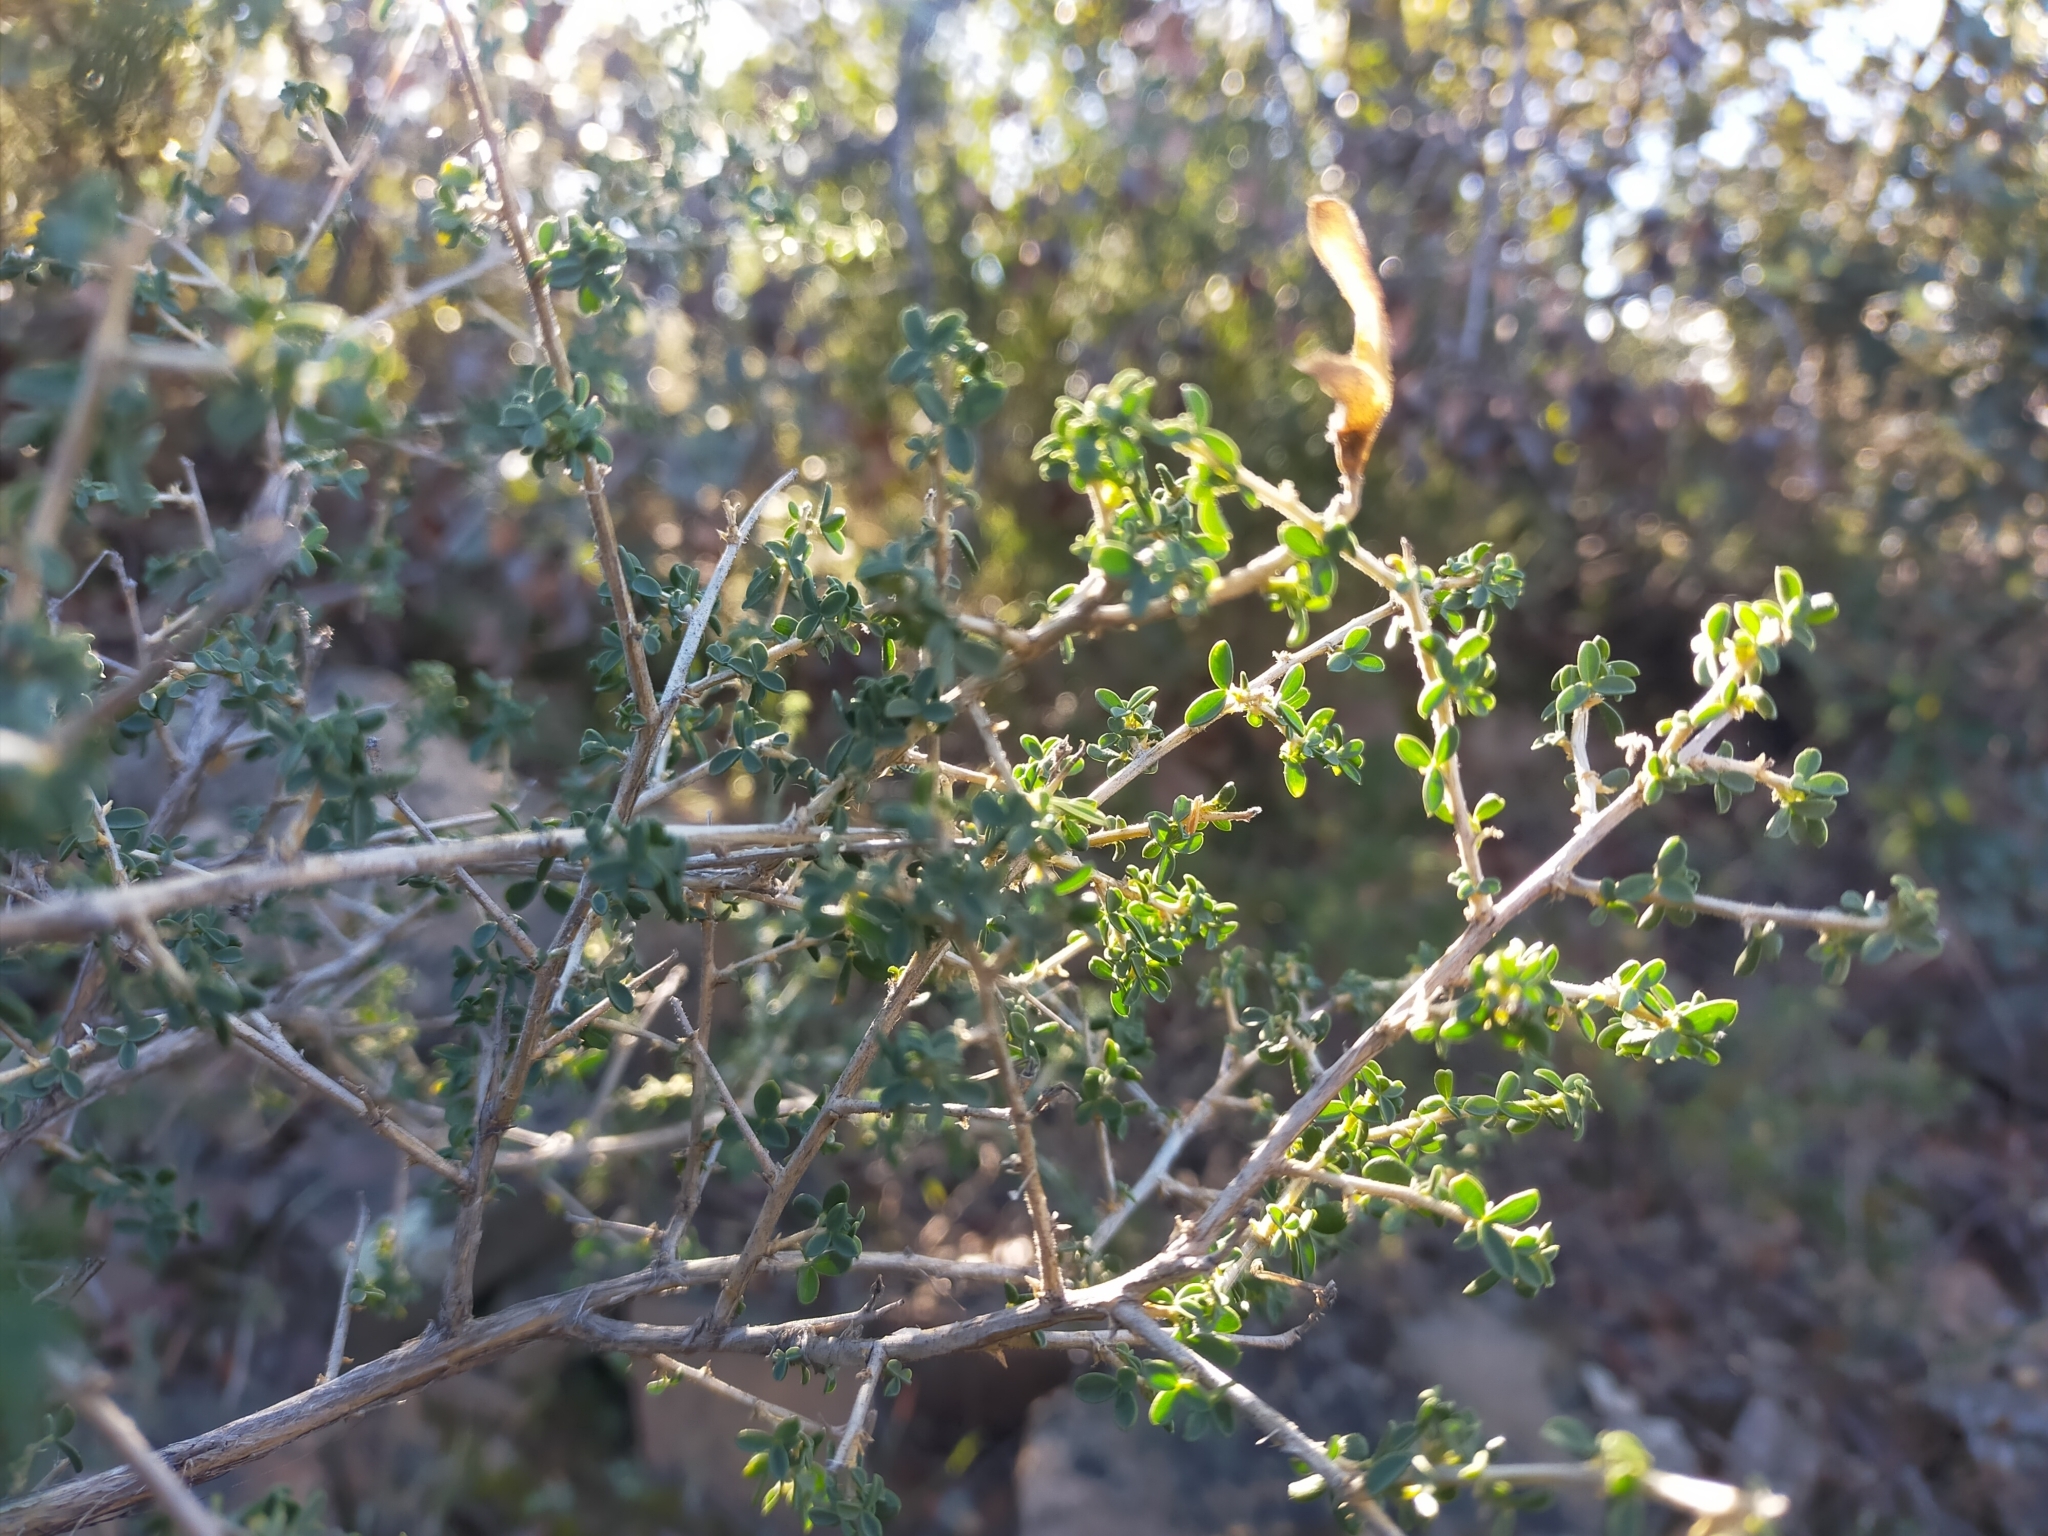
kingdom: Plantae
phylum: Tracheophyta
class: Magnoliopsida
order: Fabales
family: Fabaceae
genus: Adenocarpus
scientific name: Adenocarpus telonensis
